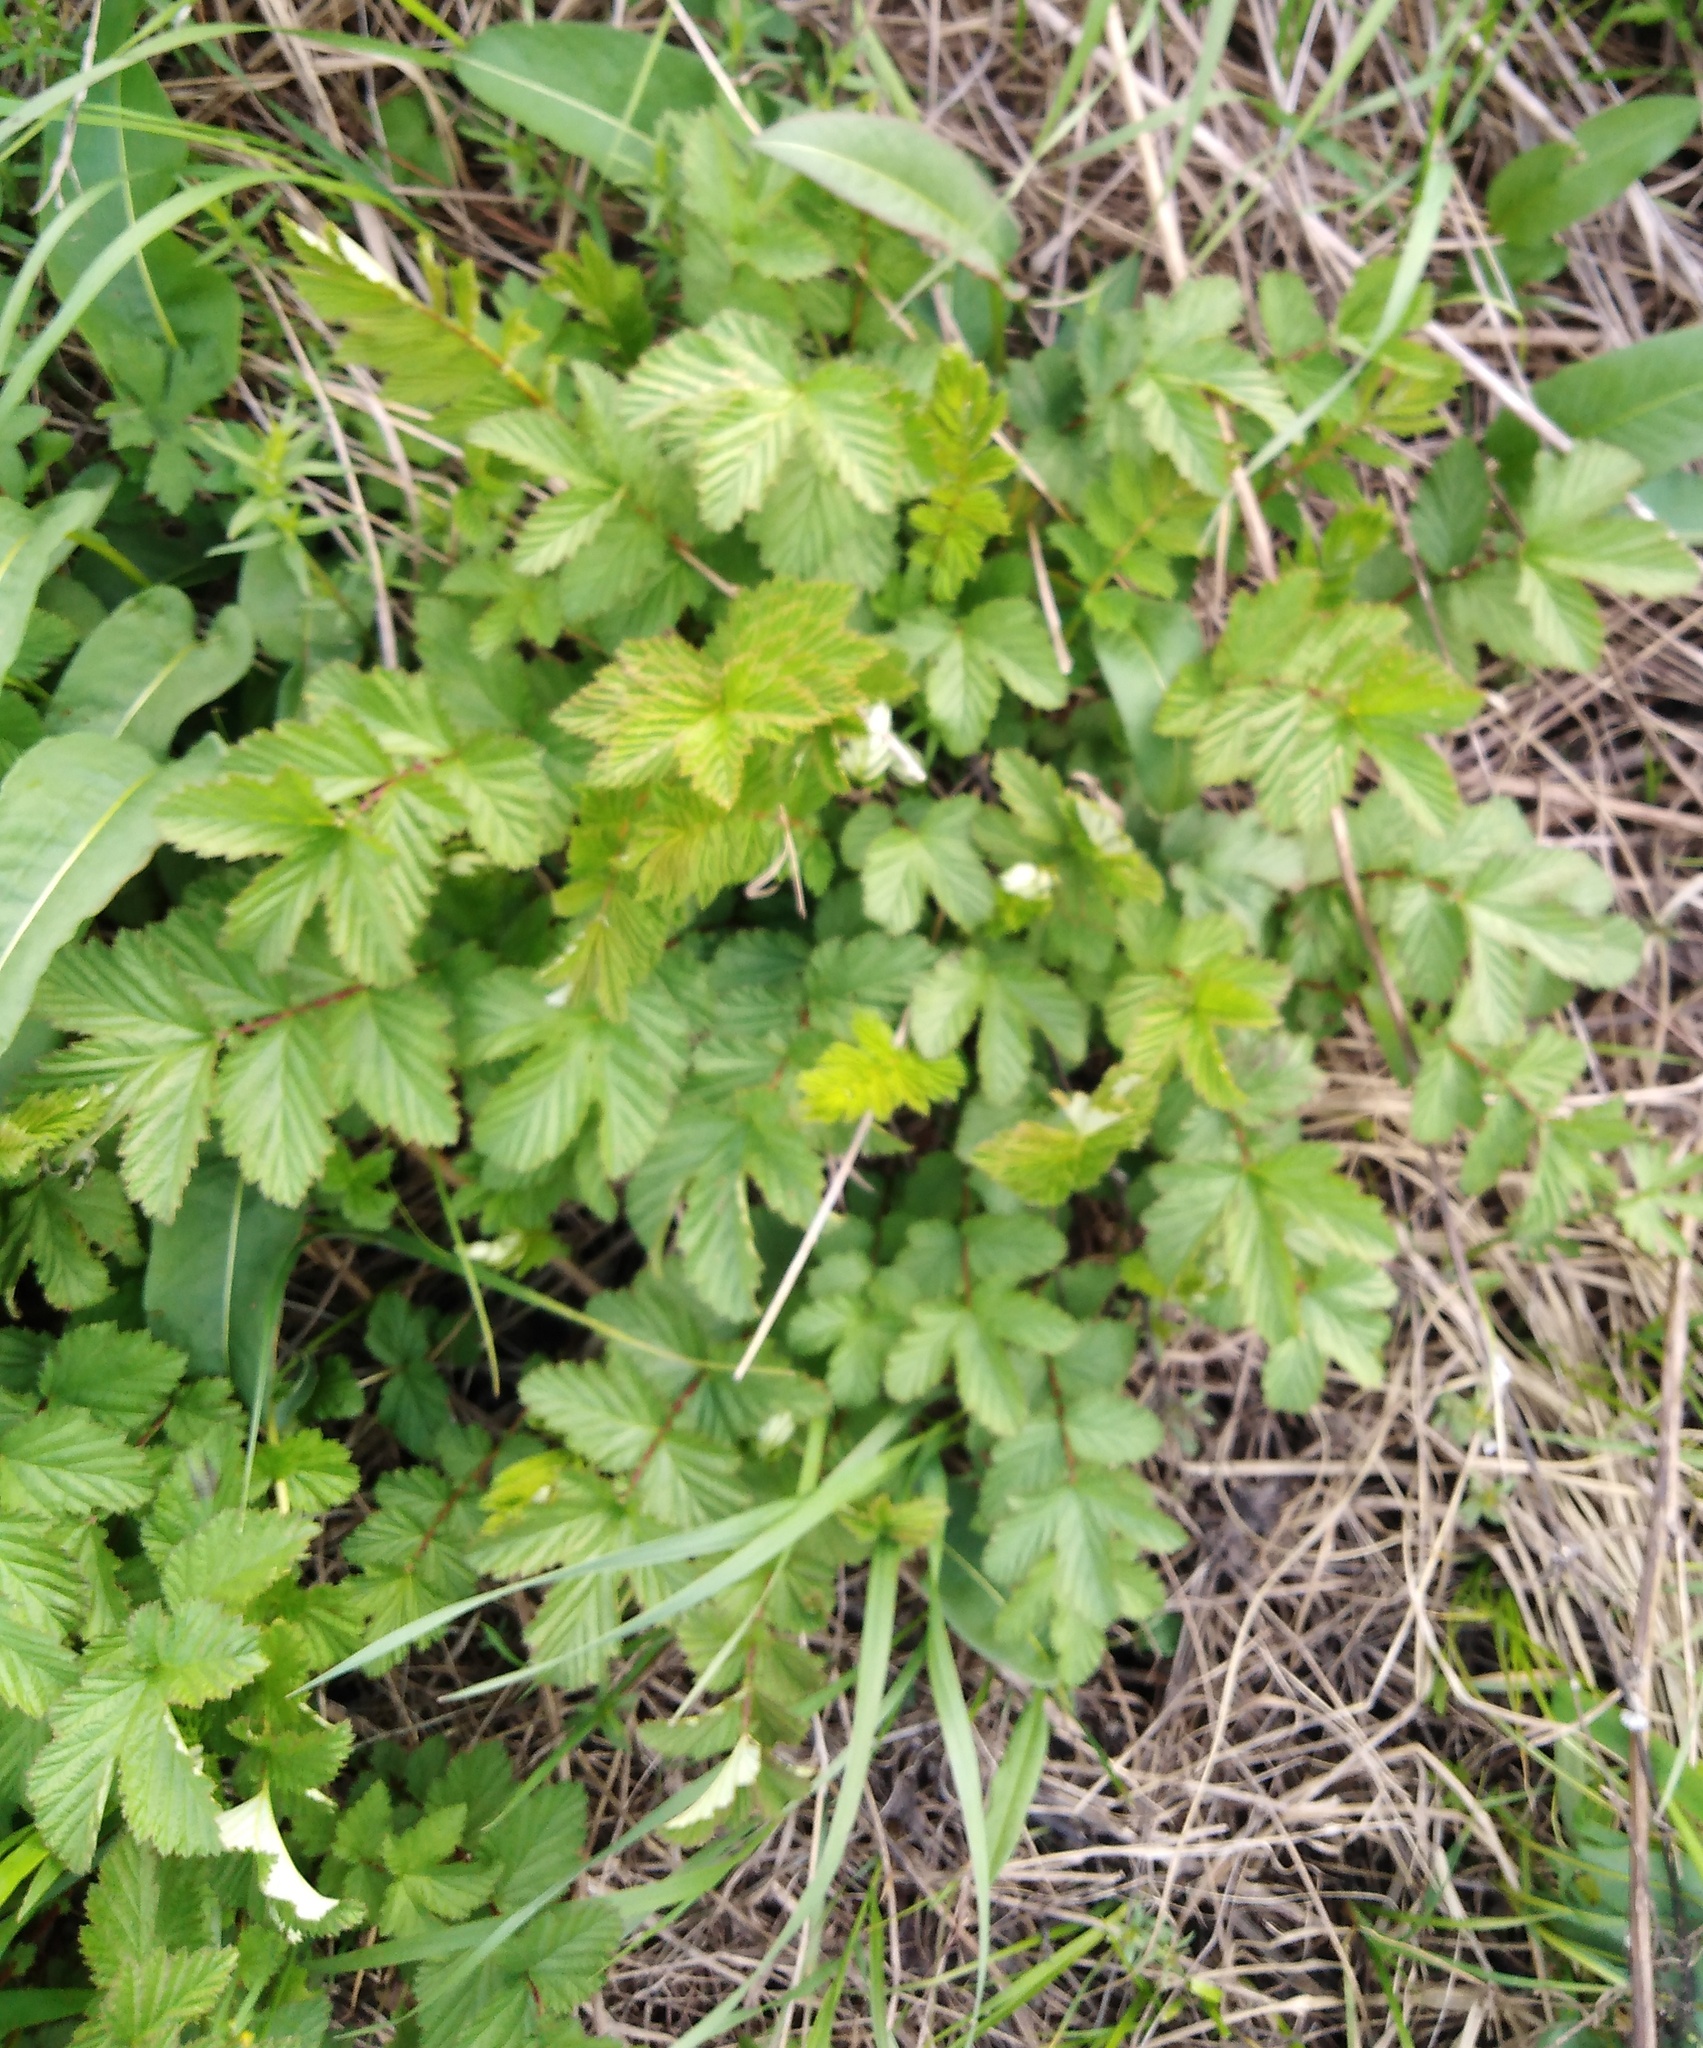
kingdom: Plantae
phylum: Tracheophyta
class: Magnoliopsida
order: Rosales
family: Rosaceae
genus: Filipendula
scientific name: Filipendula ulmaria
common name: Meadowsweet
